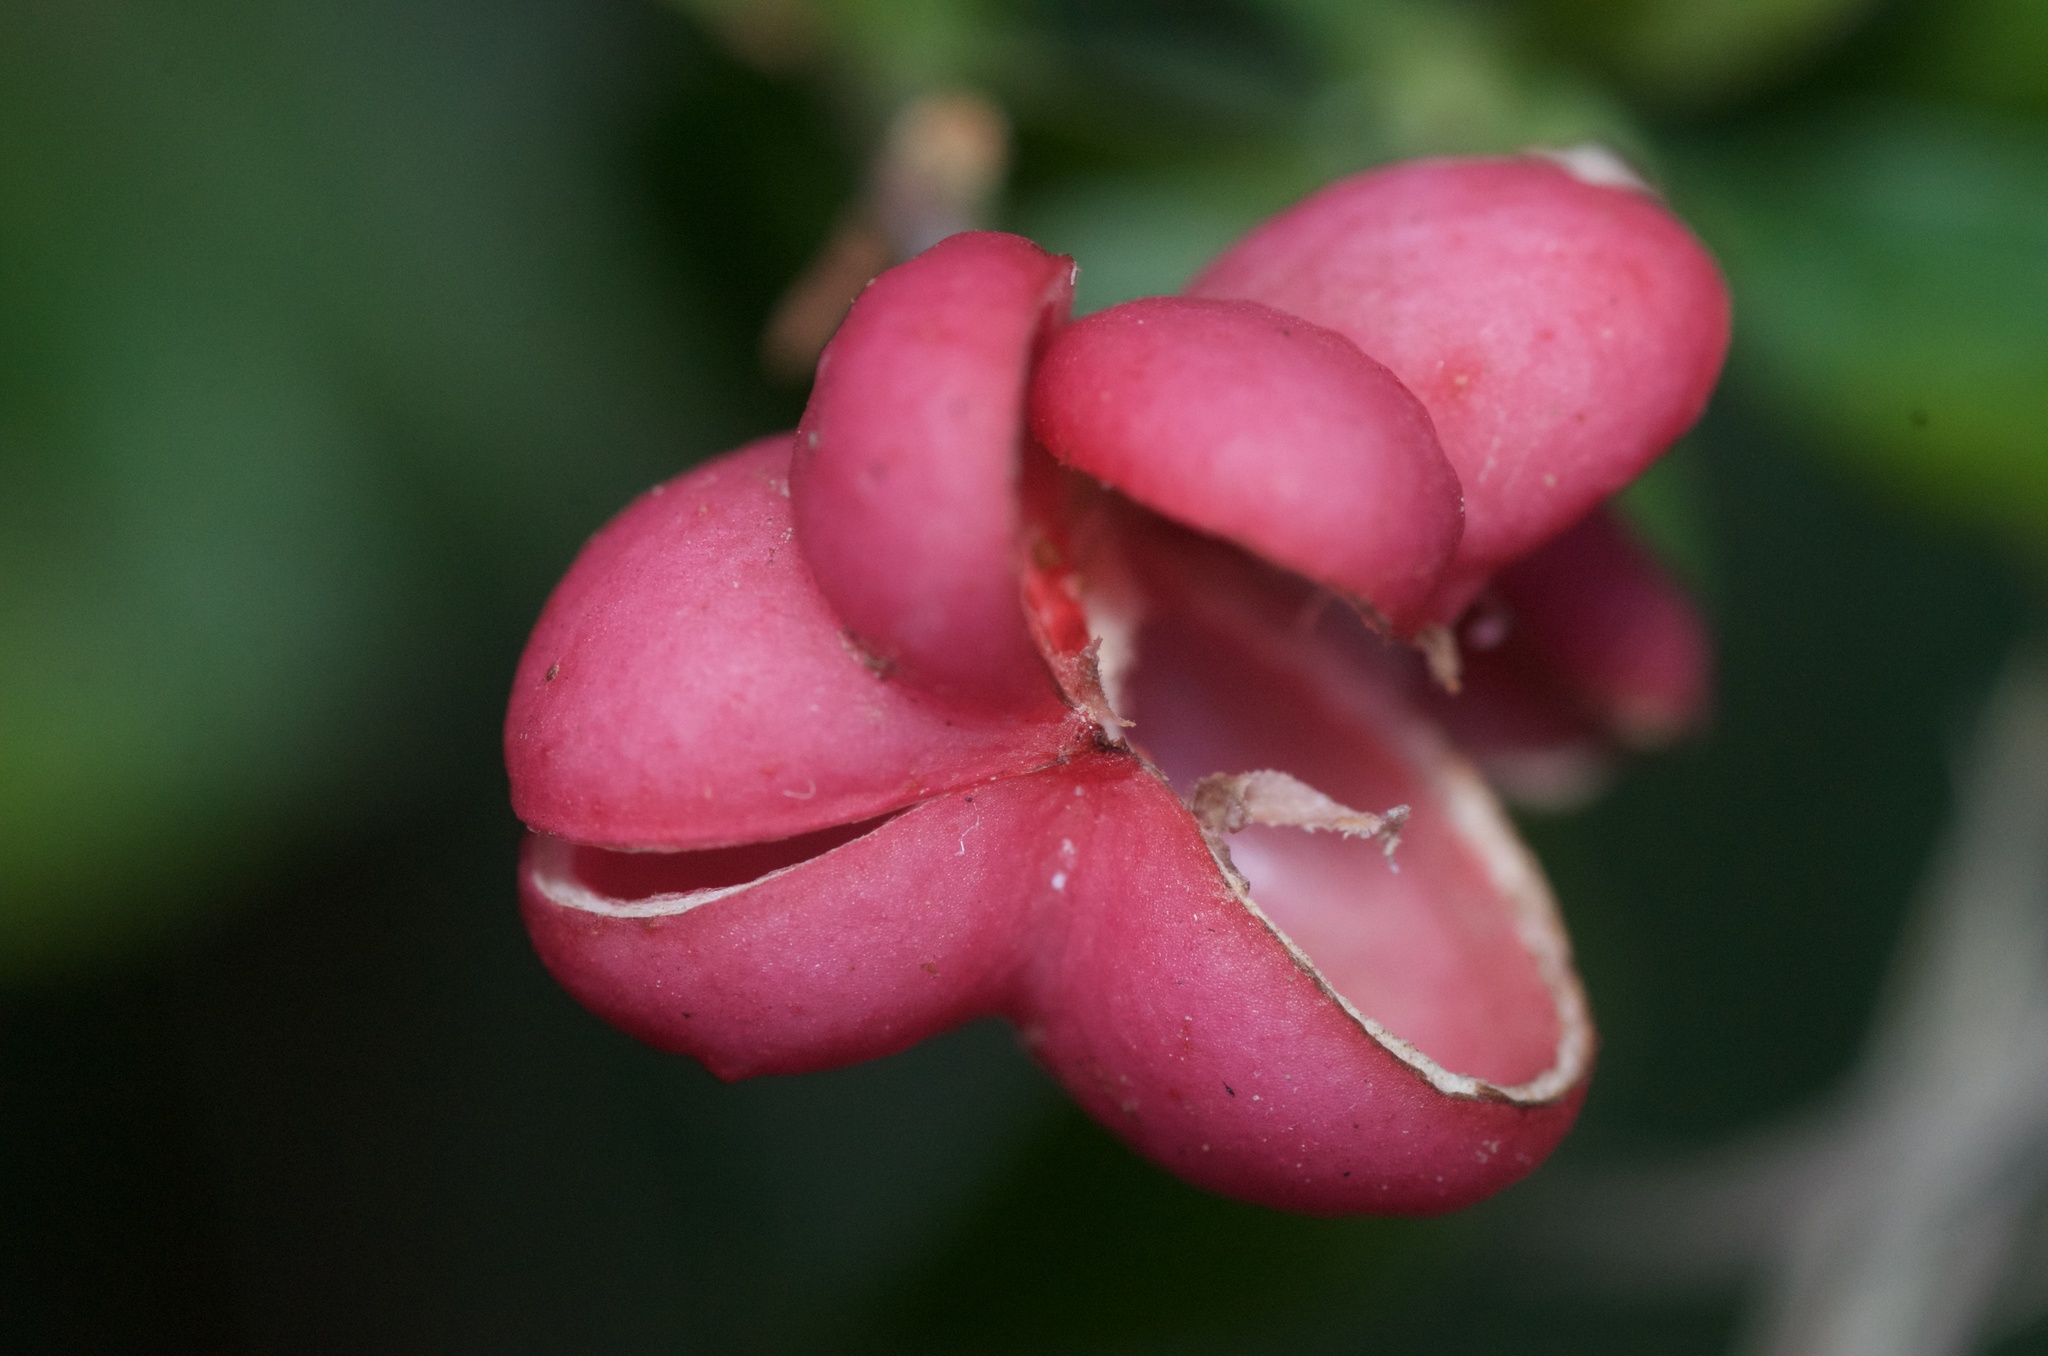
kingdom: Plantae
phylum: Tracheophyta
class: Magnoliopsida
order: Celastrales
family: Celastraceae
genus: Euonymus
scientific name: Euonymus europaeus
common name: Spindle
